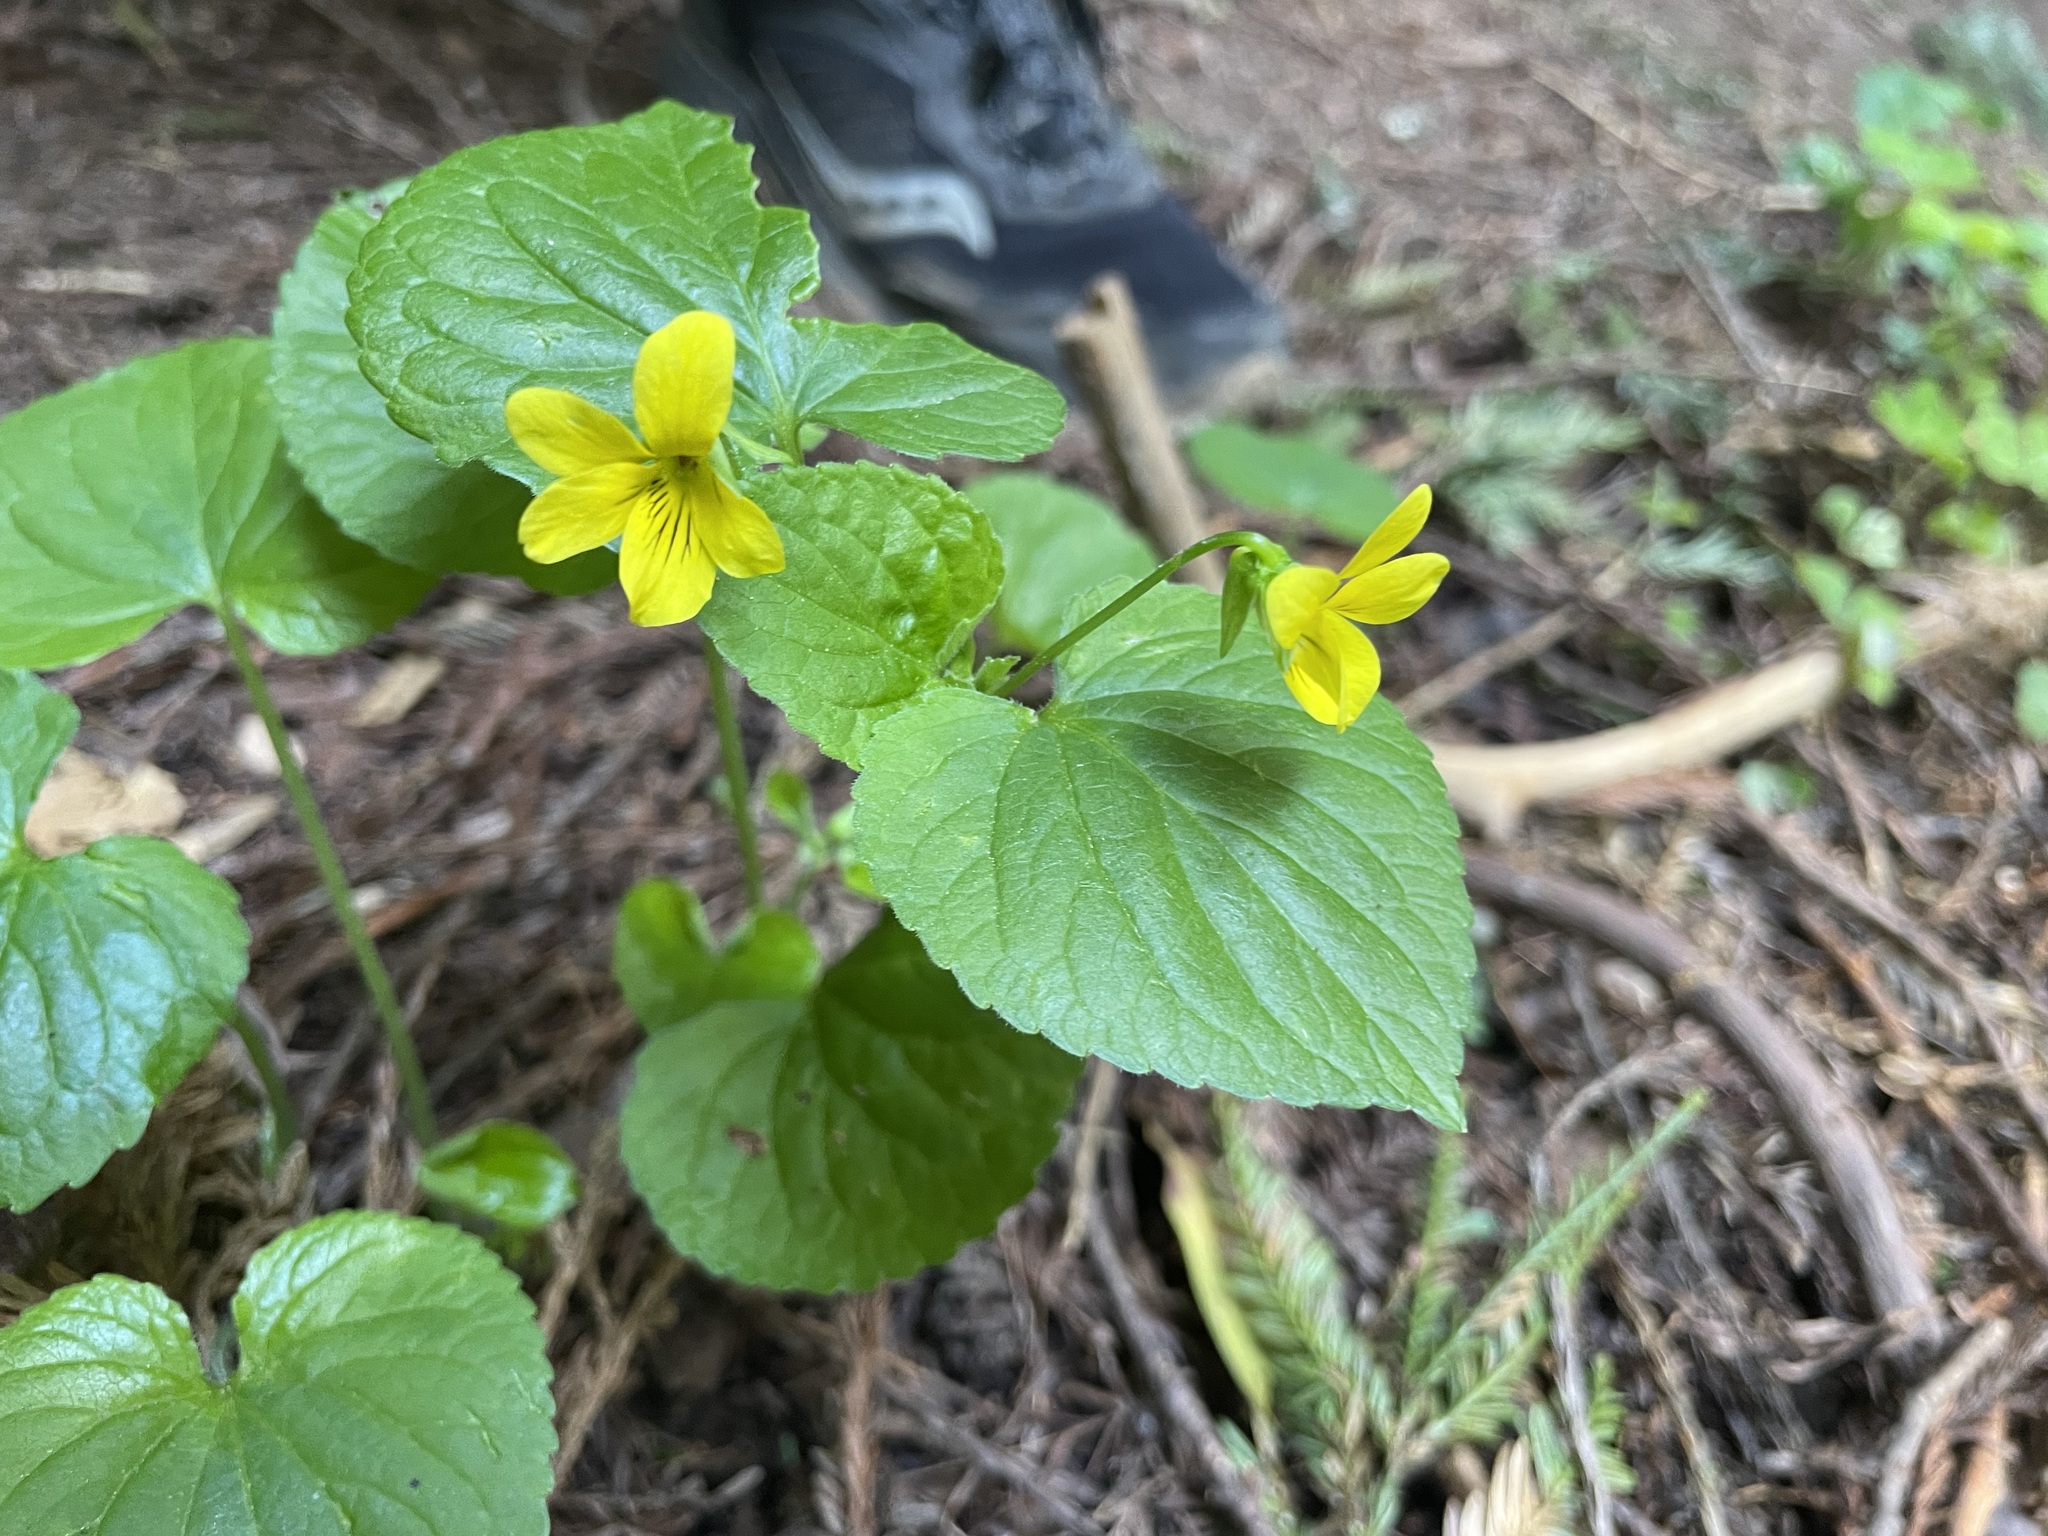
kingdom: Plantae
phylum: Tracheophyta
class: Magnoliopsida
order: Malpighiales
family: Violaceae
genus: Viola
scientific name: Viola glabella
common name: Stream violet
